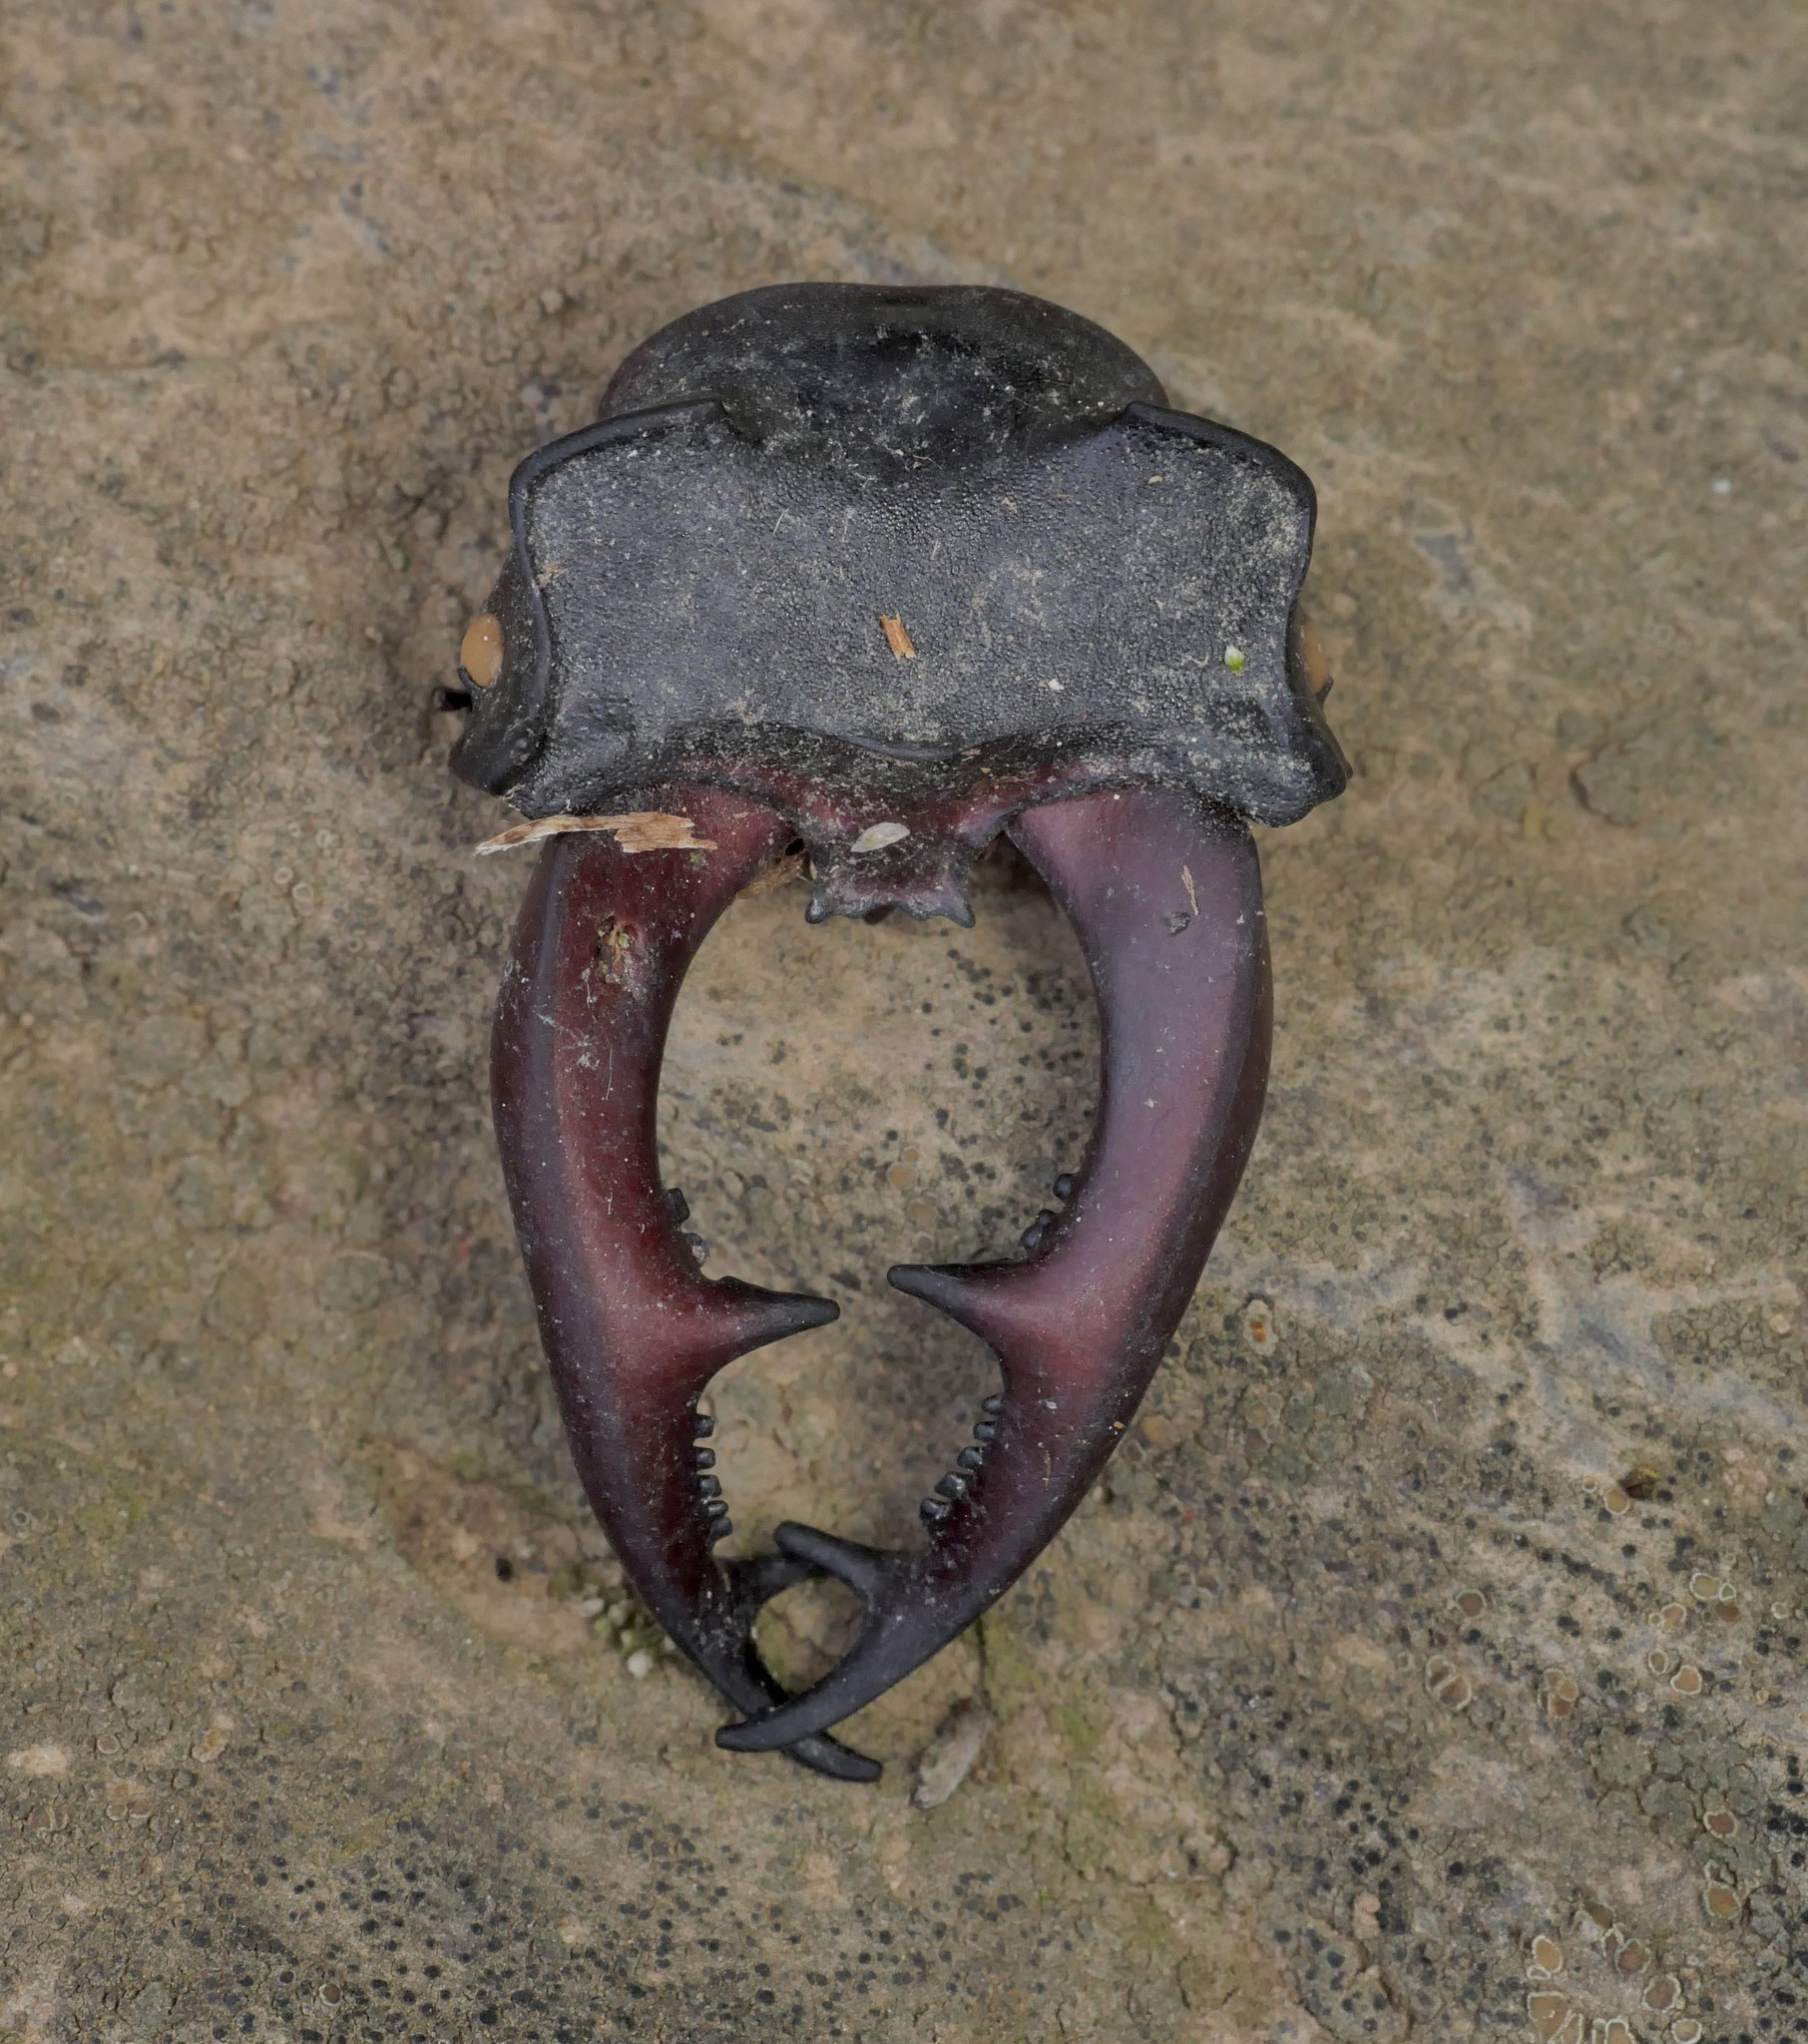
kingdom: Animalia
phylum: Arthropoda
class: Insecta
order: Coleoptera
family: Lucanidae
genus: Lucanus
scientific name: Lucanus cervus
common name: Stag beetle
